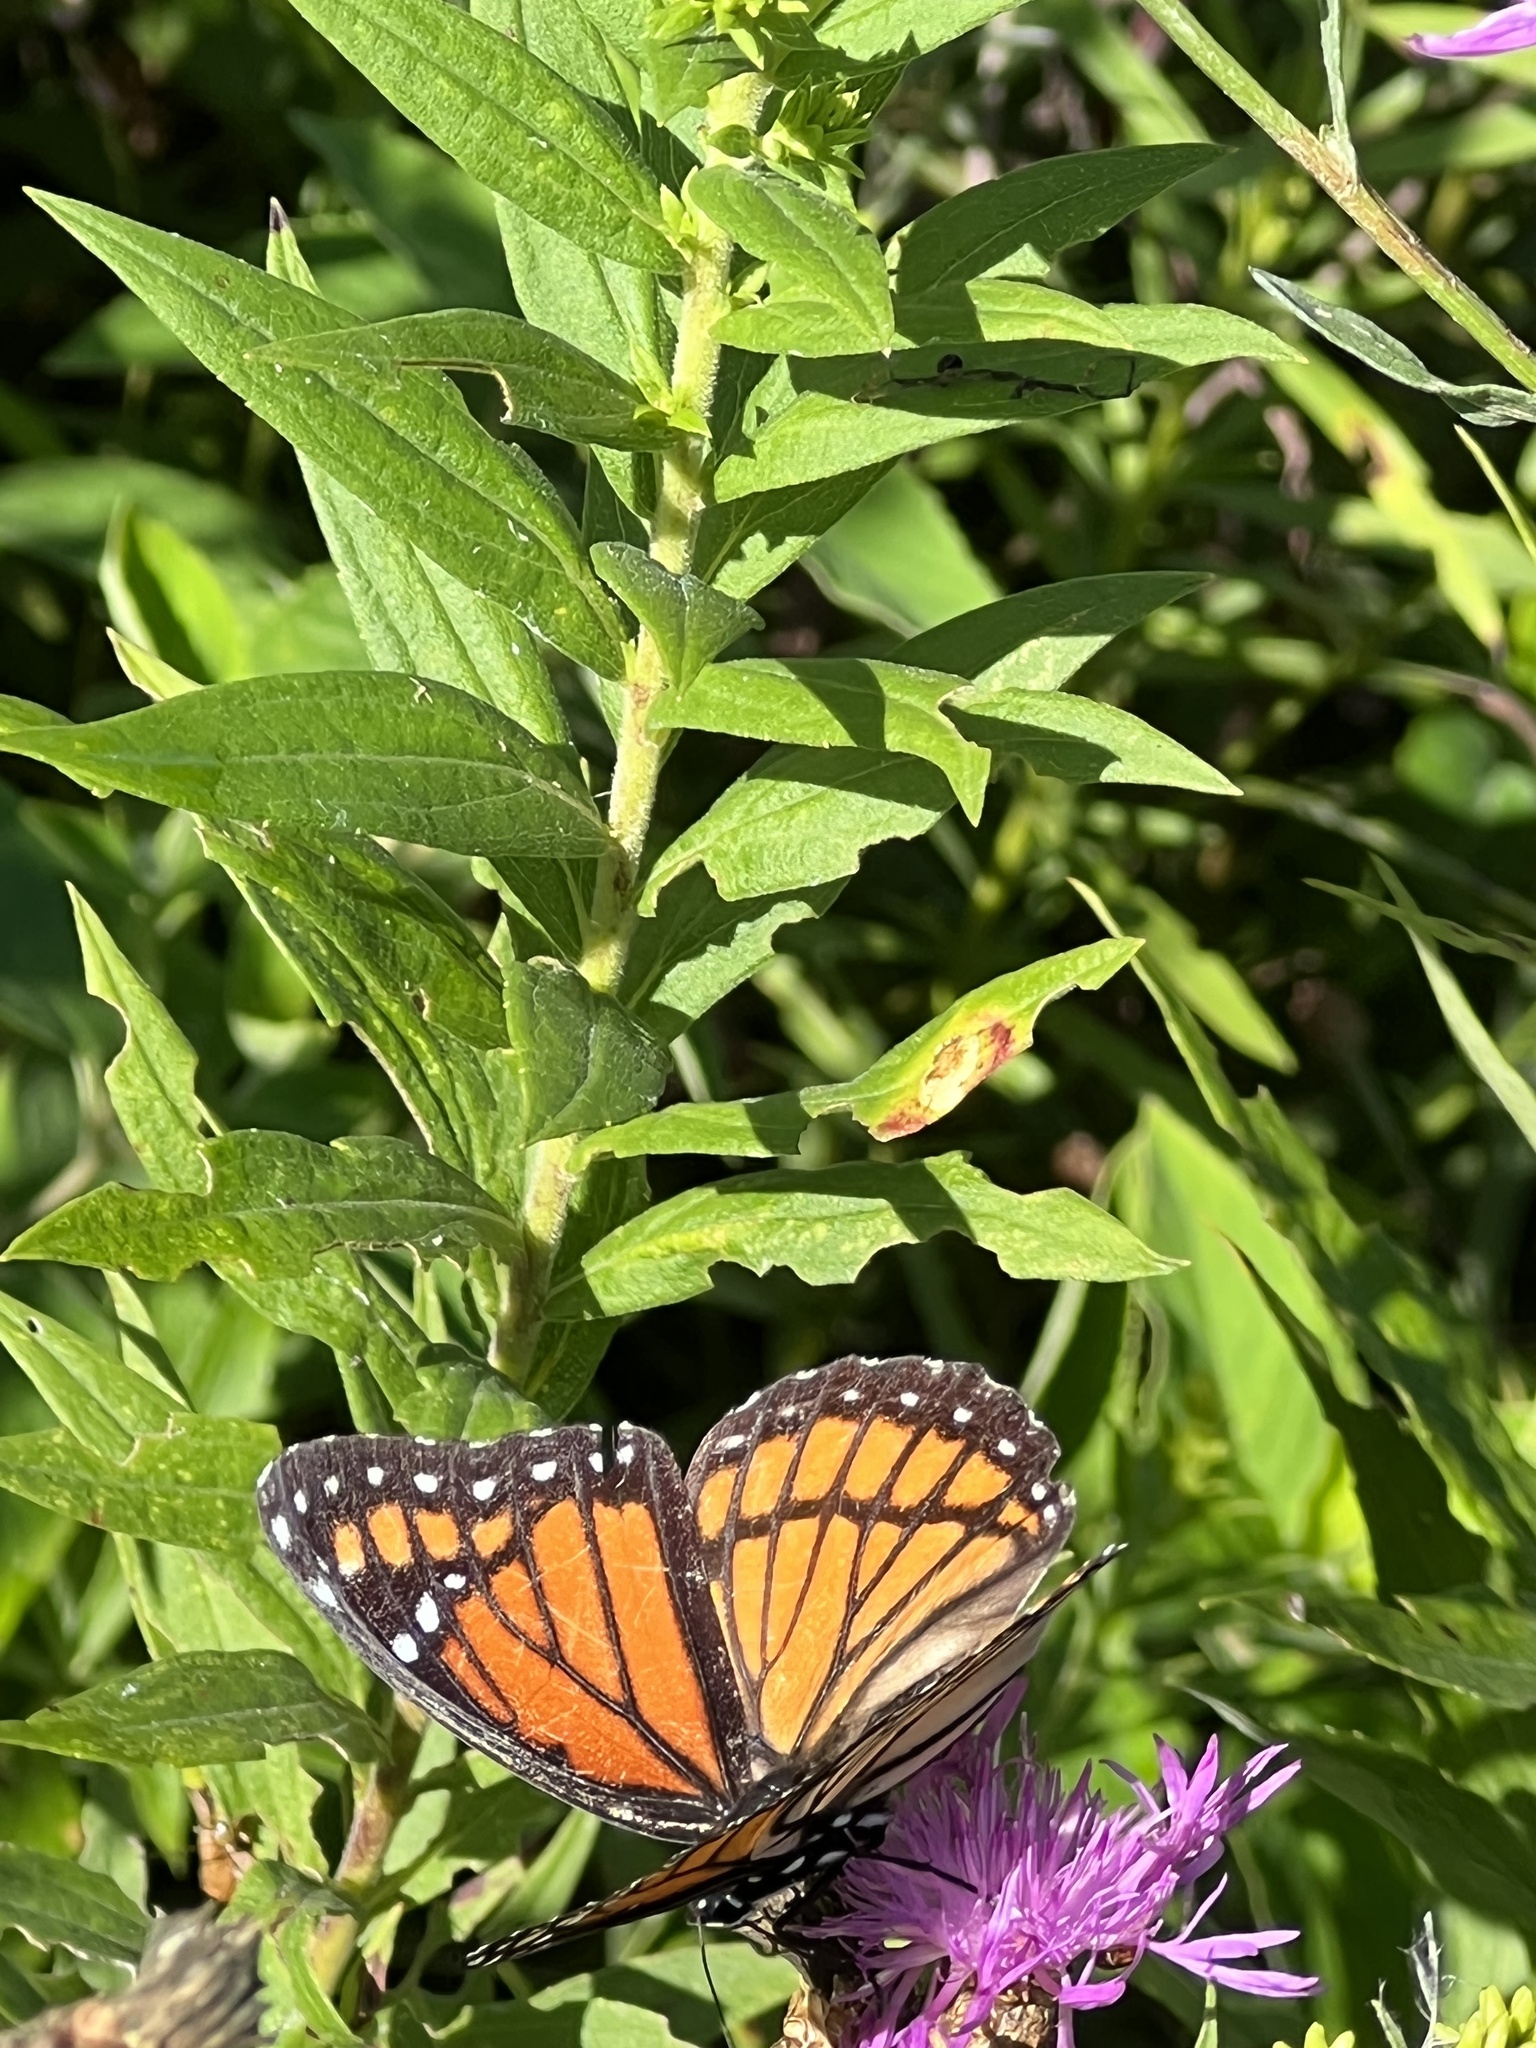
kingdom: Animalia
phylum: Arthropoda
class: Insecta
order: Lepidoptera
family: Nymphalidae
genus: Limenitis
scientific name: Limenitis archippus
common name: Viceroy
